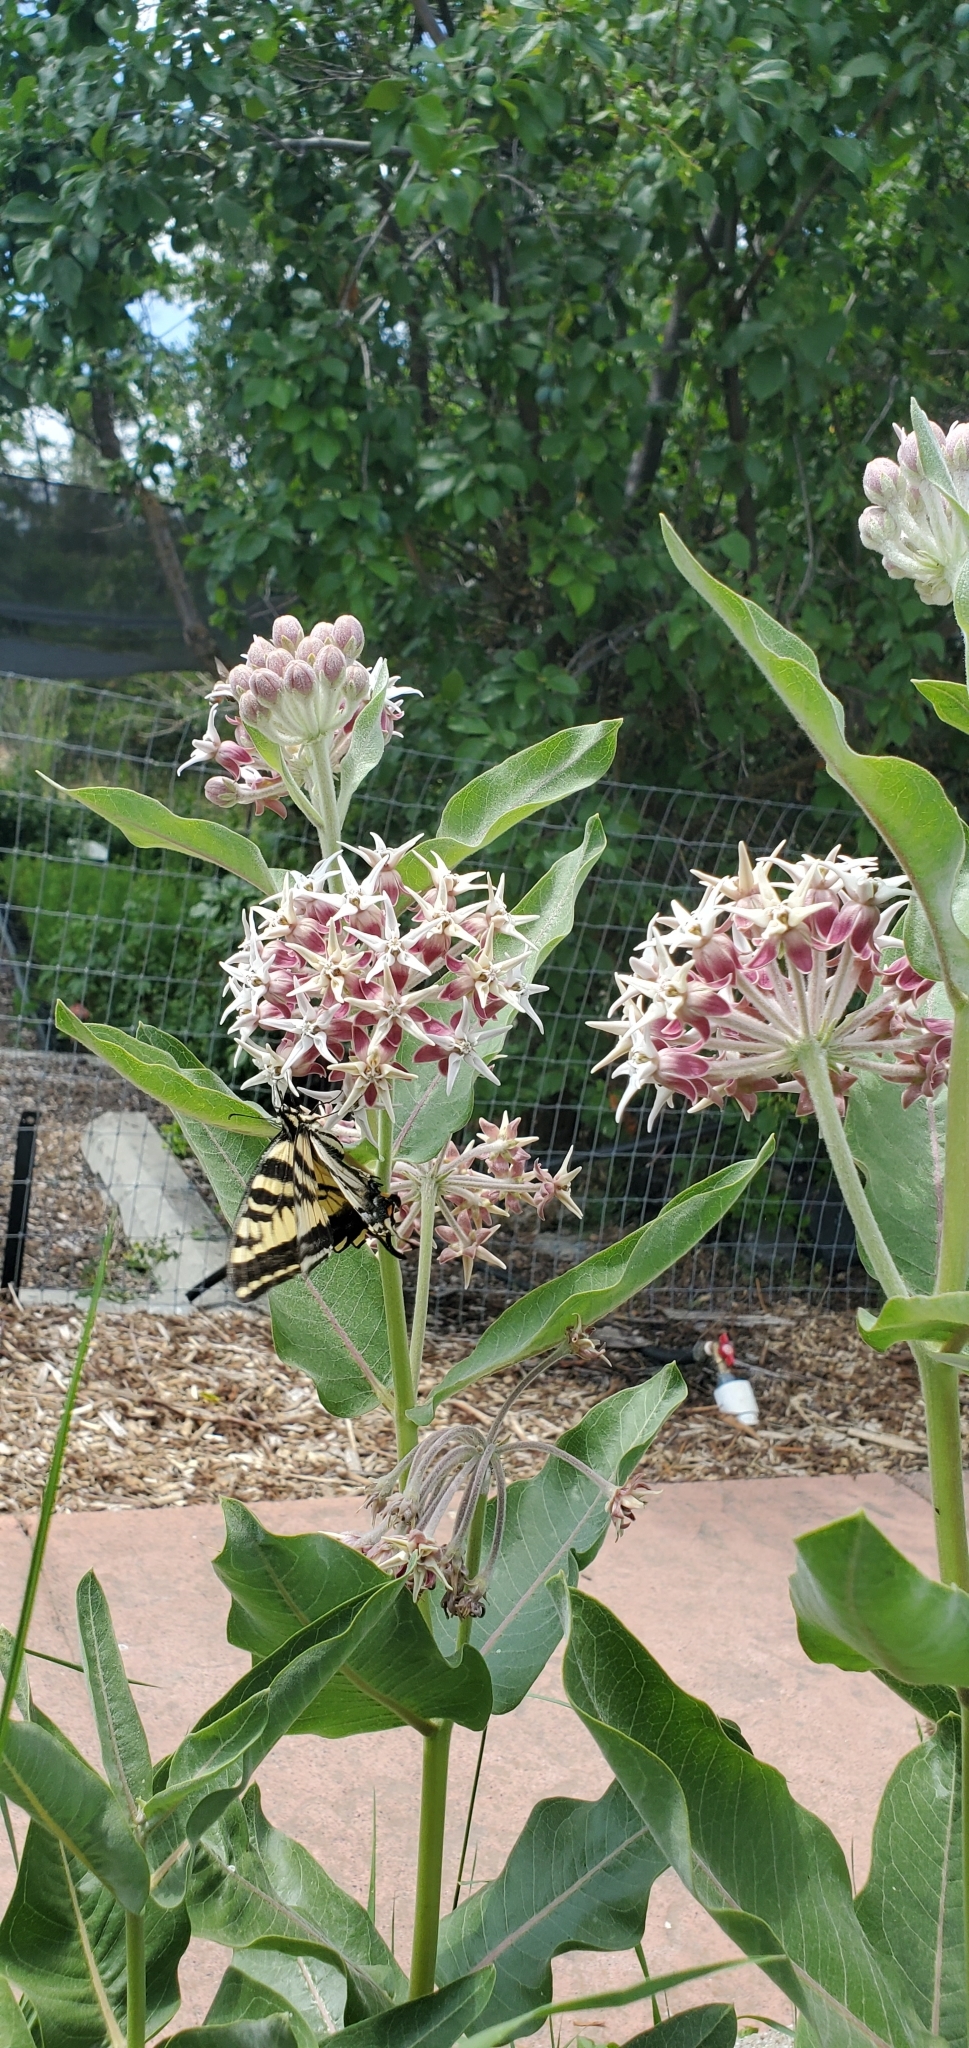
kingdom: Plantae
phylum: Tracheophyta
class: Magnoliopsida
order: Gentianales
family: Apocynaceae
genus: Asclepias
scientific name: Asclepias speciosa
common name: Showy milkweed
